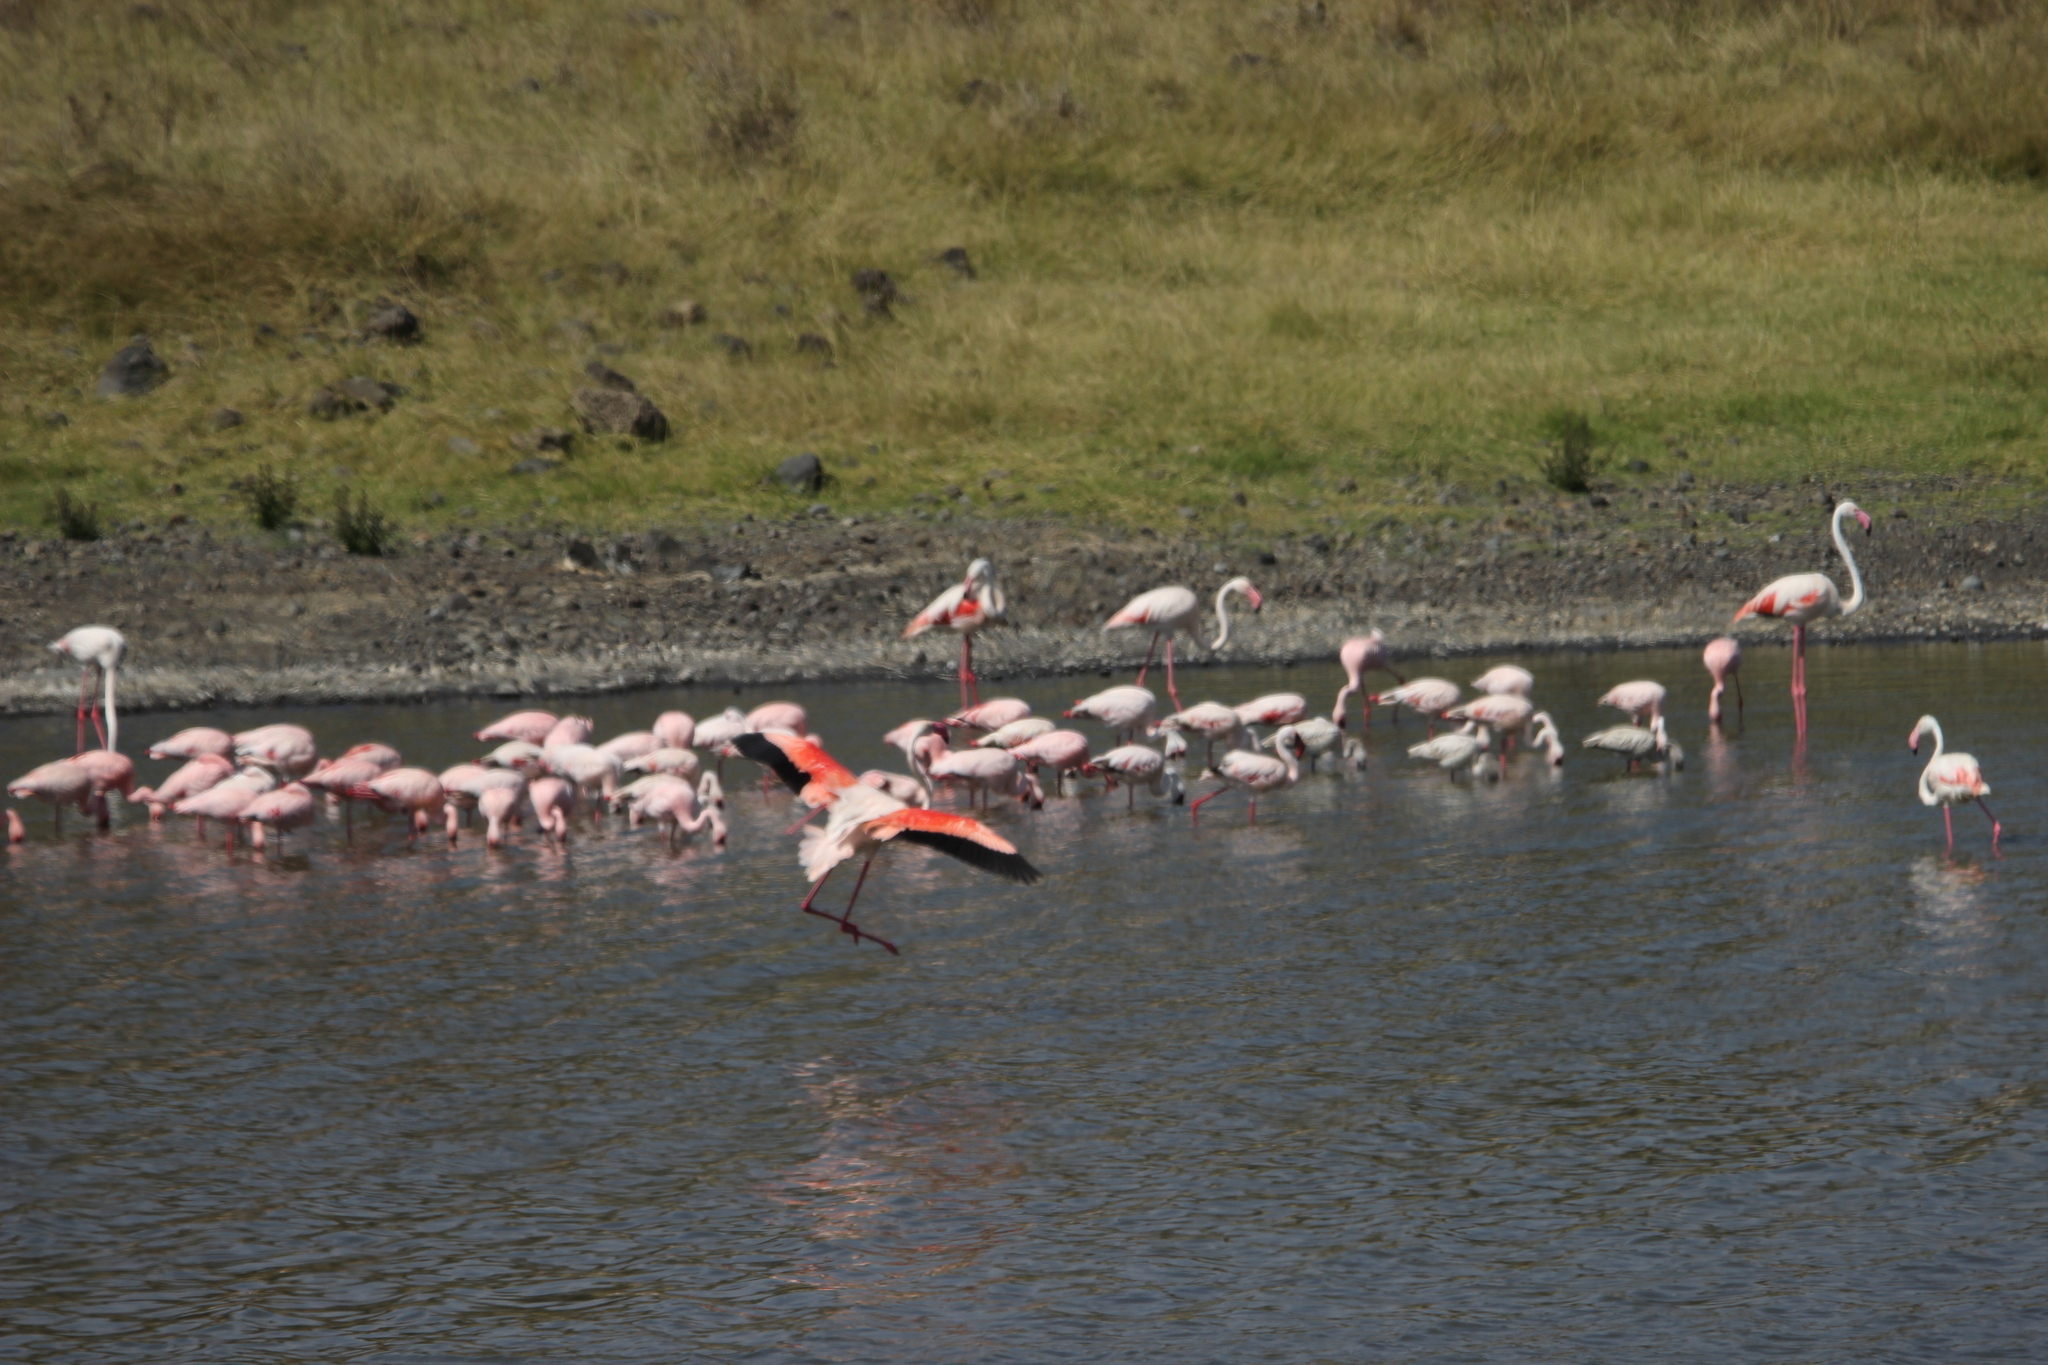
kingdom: Animalia
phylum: Chordata
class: Aves
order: Phoenicopteriformes
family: Phoenicopteridae
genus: Phoenicopterus
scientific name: Phoenicopterus roseus
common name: Greater flamingo
